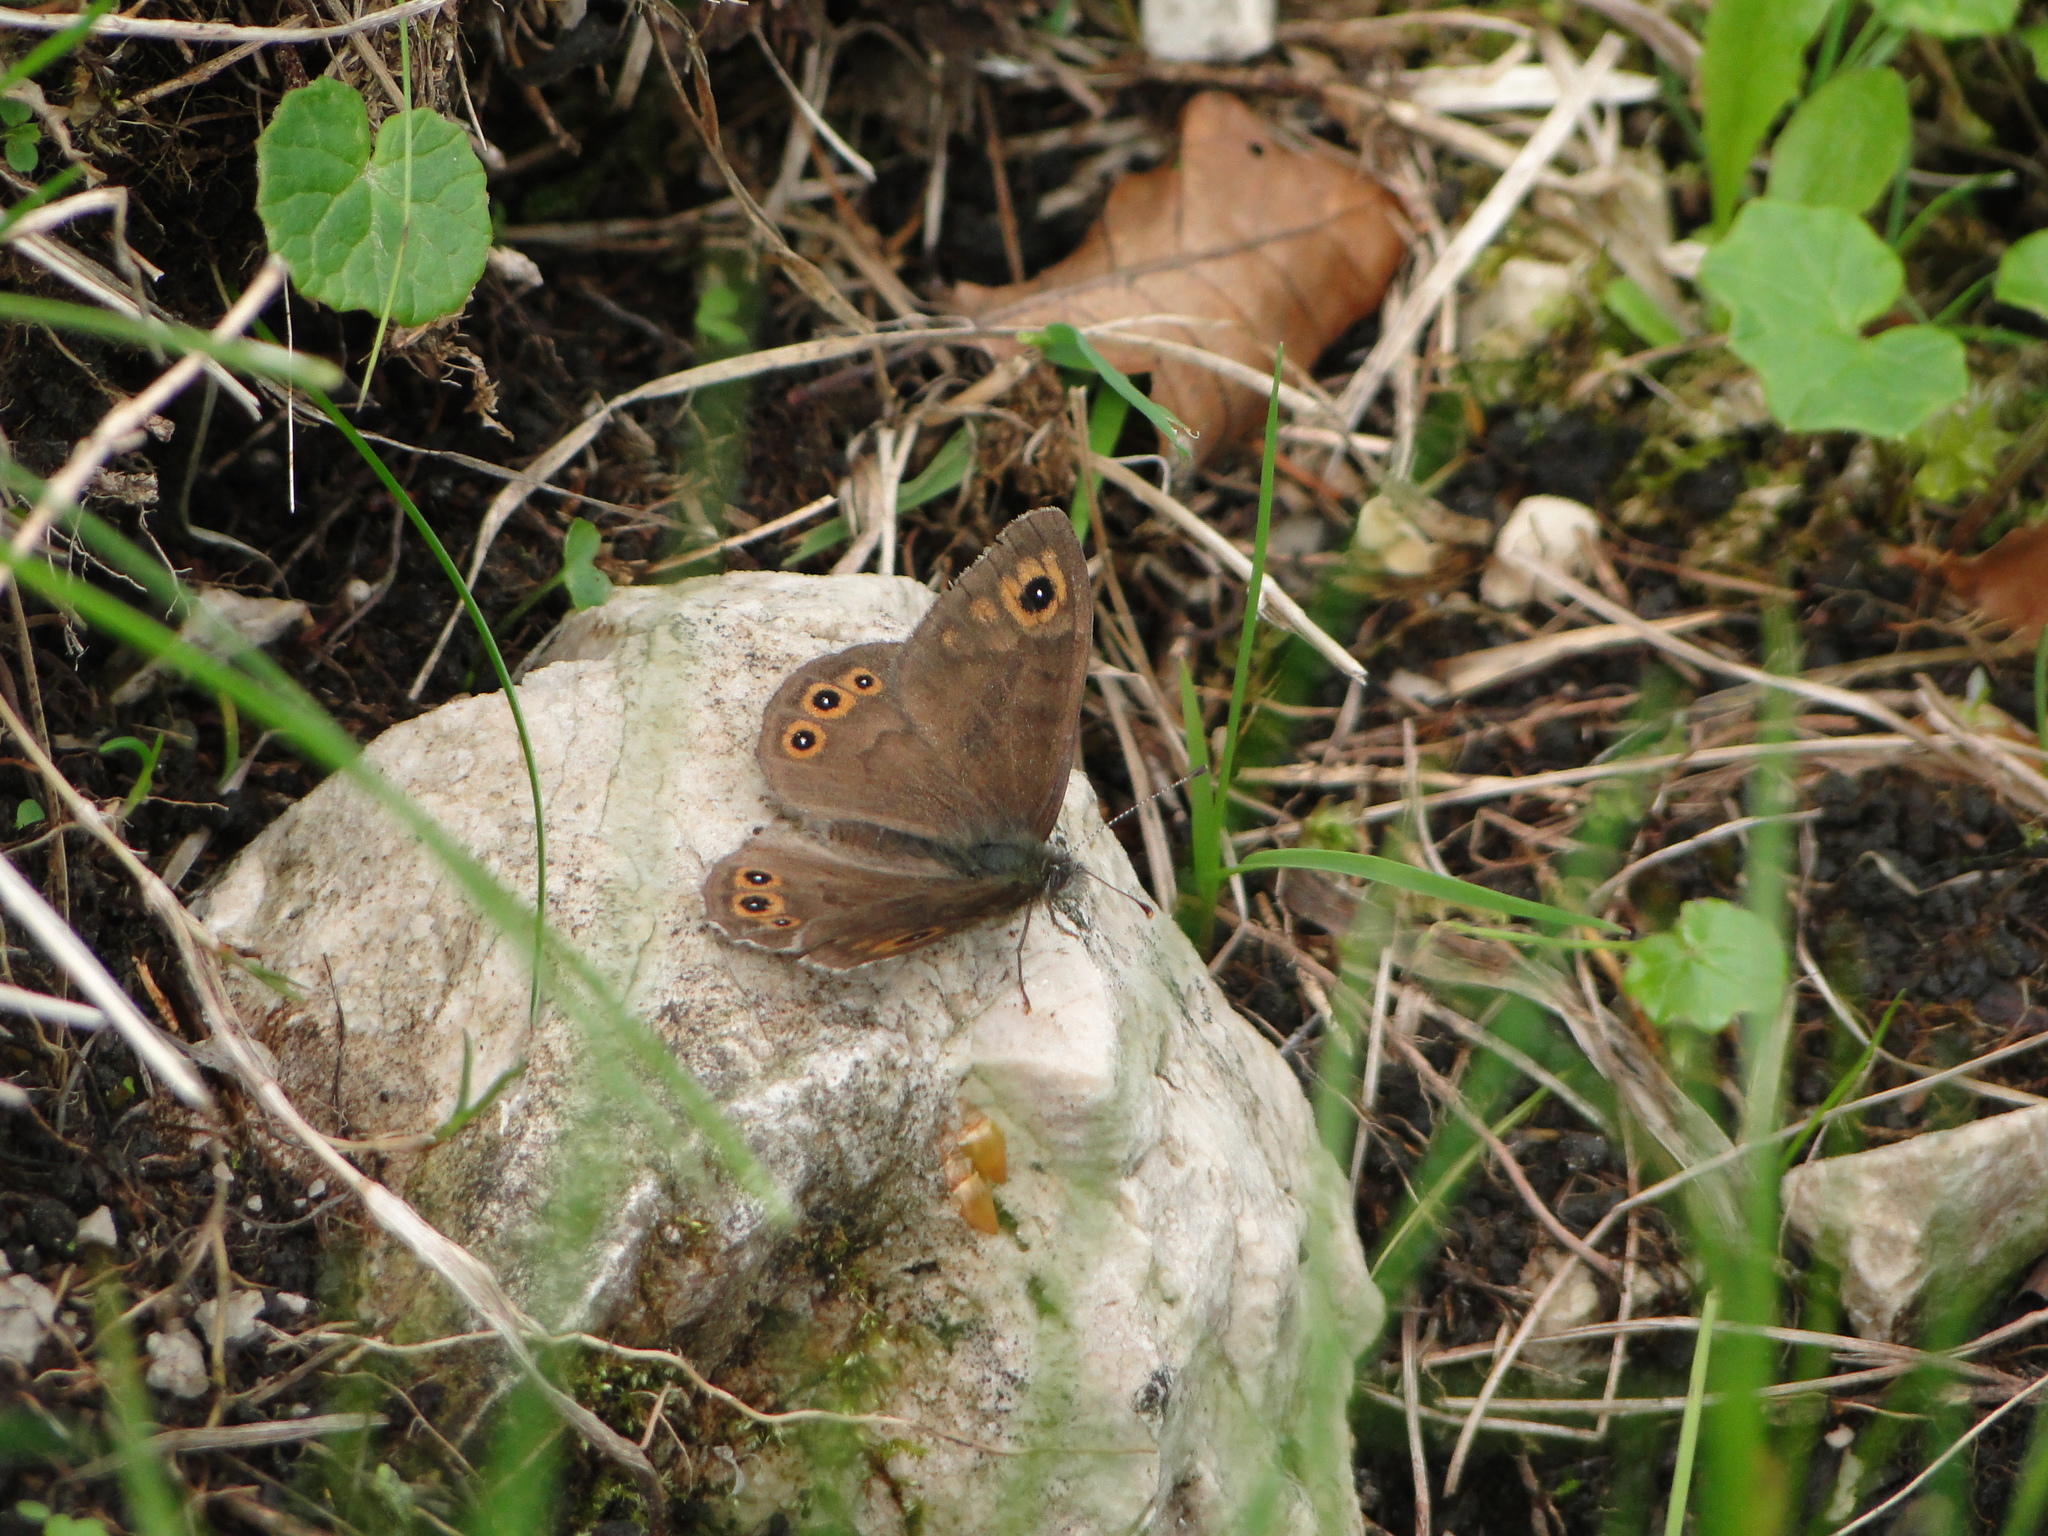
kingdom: Animalia
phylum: Arthropoda
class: Insecta
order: Lepidoptera
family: Nymphalidae
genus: Pararge
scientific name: Pararge petropolitana
